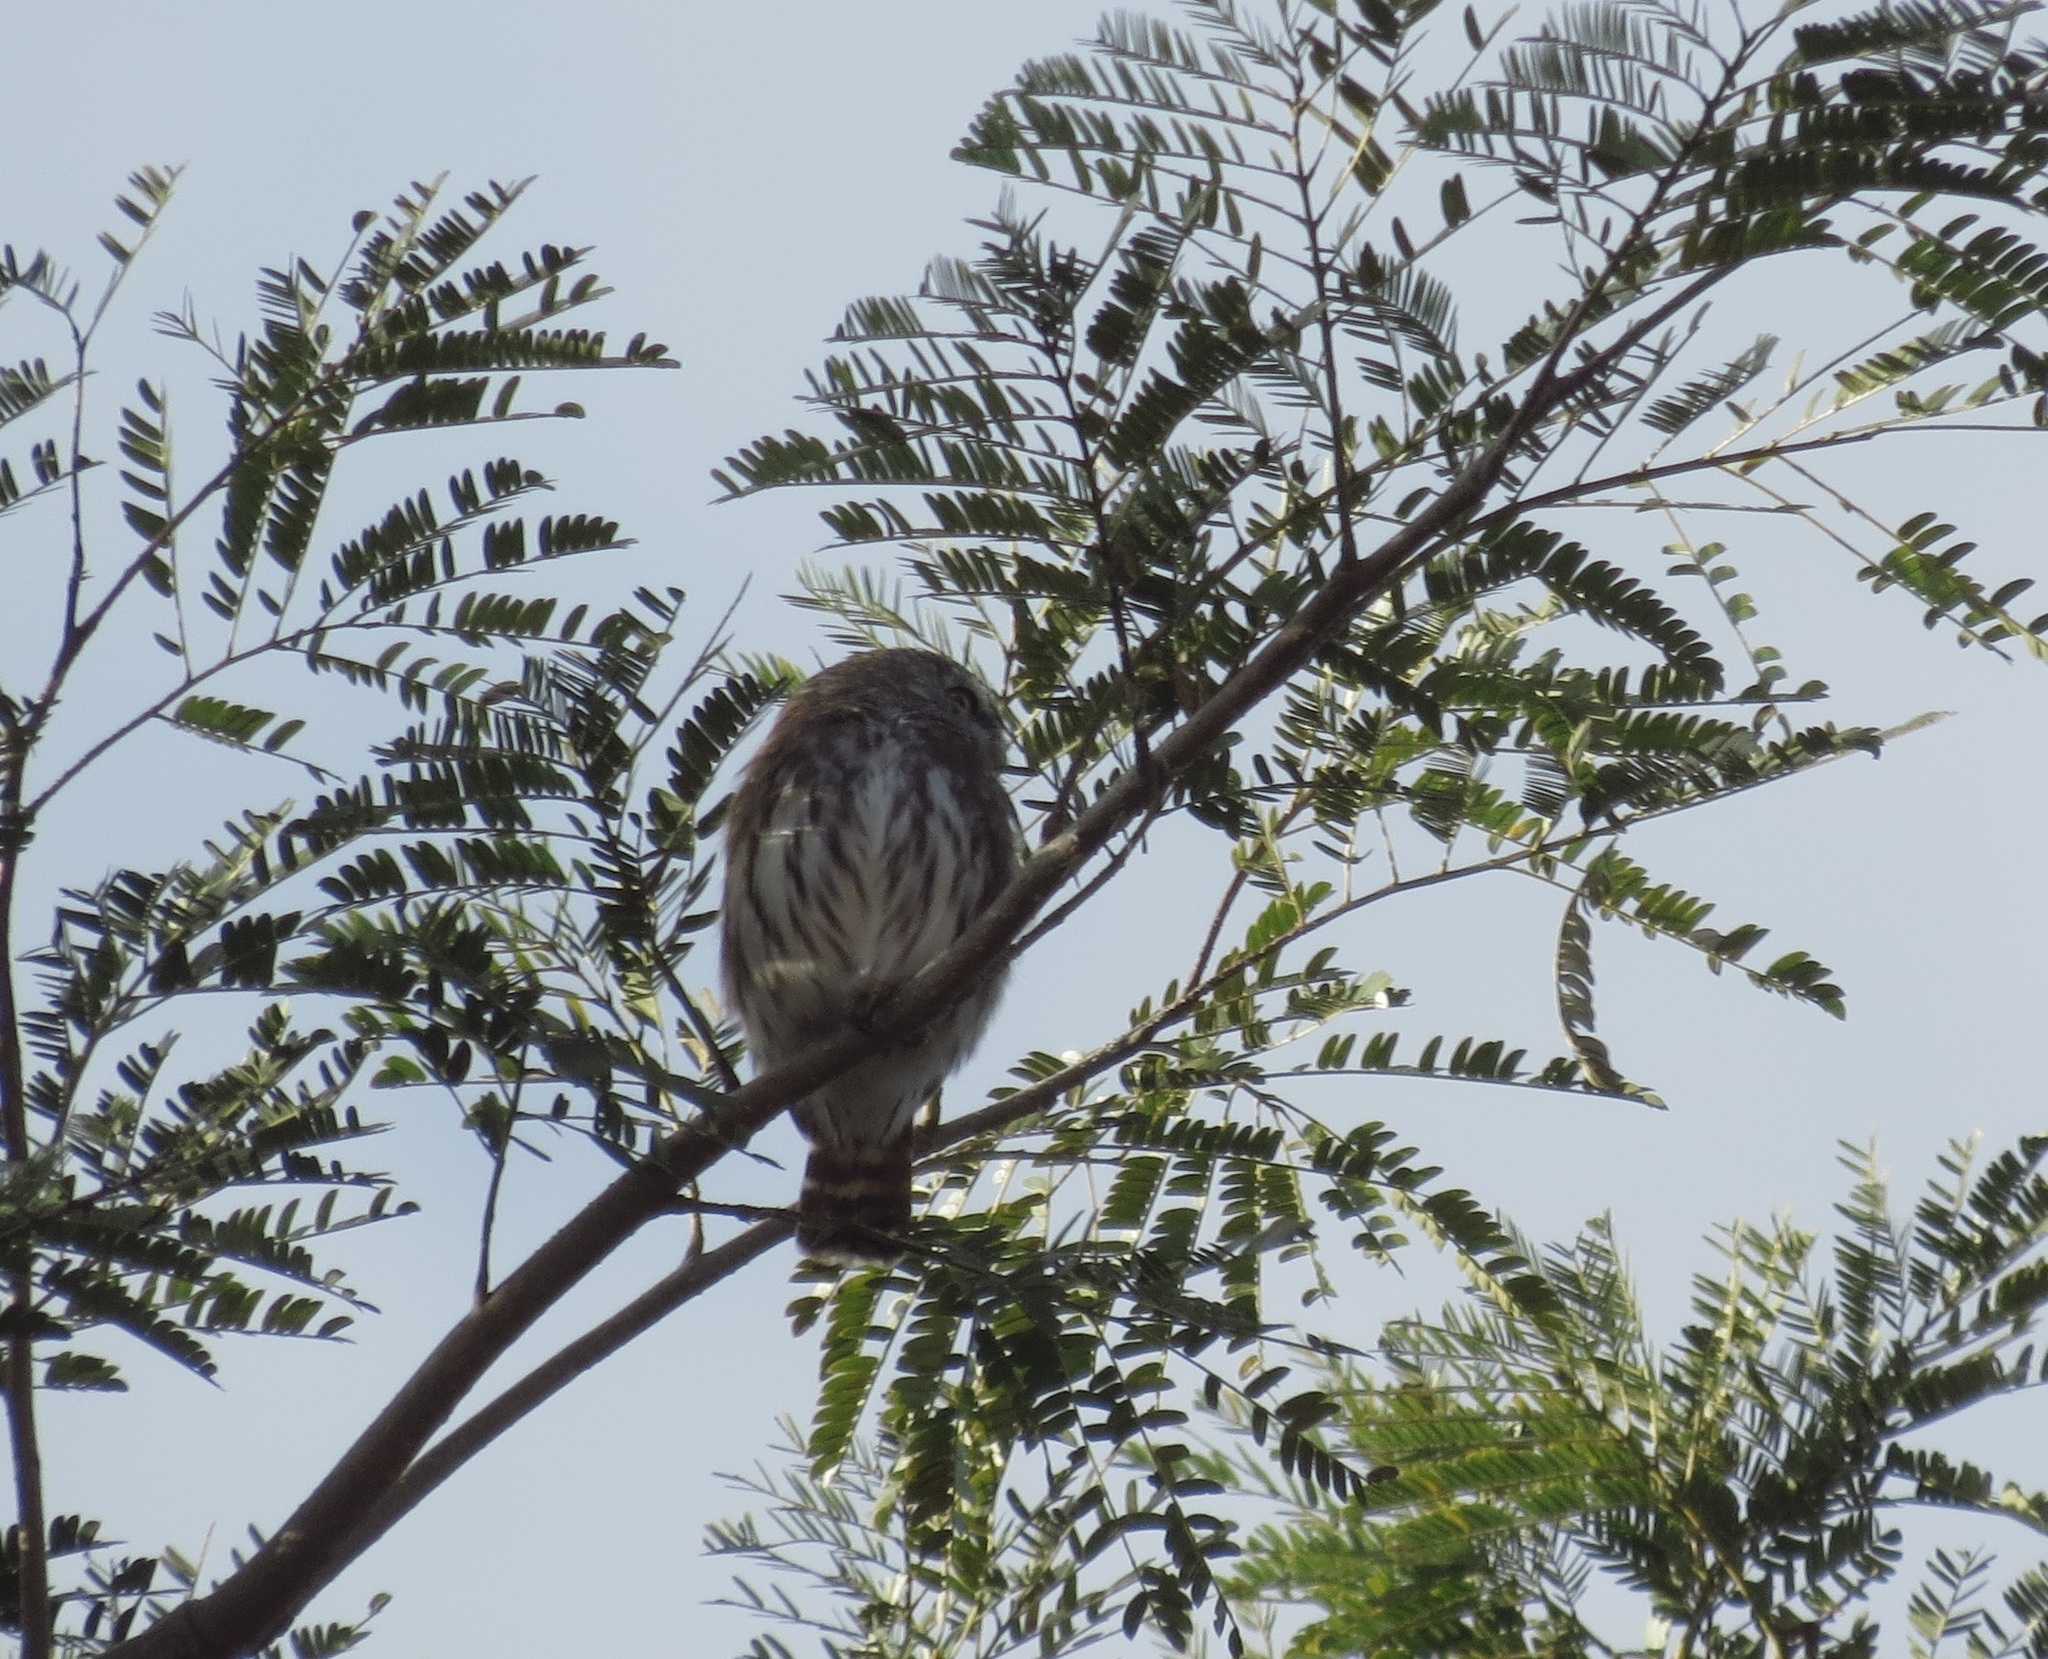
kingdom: Animalia
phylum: Chordata
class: Aves
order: Strigiformes
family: Strigidae
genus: Glaucidium
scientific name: Glaucidium brasilianum
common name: Ferruginous pygmy-owl
